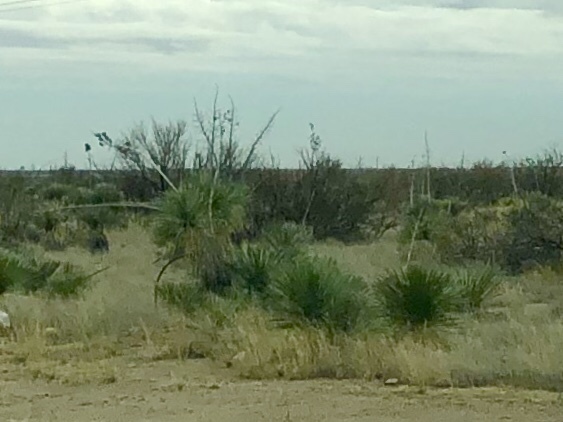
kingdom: Plantae
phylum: Tracheophyta
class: Liliopsida
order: Asparagales
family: Asparagaceae
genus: Yucca
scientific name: Yucca elata
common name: Palmella
